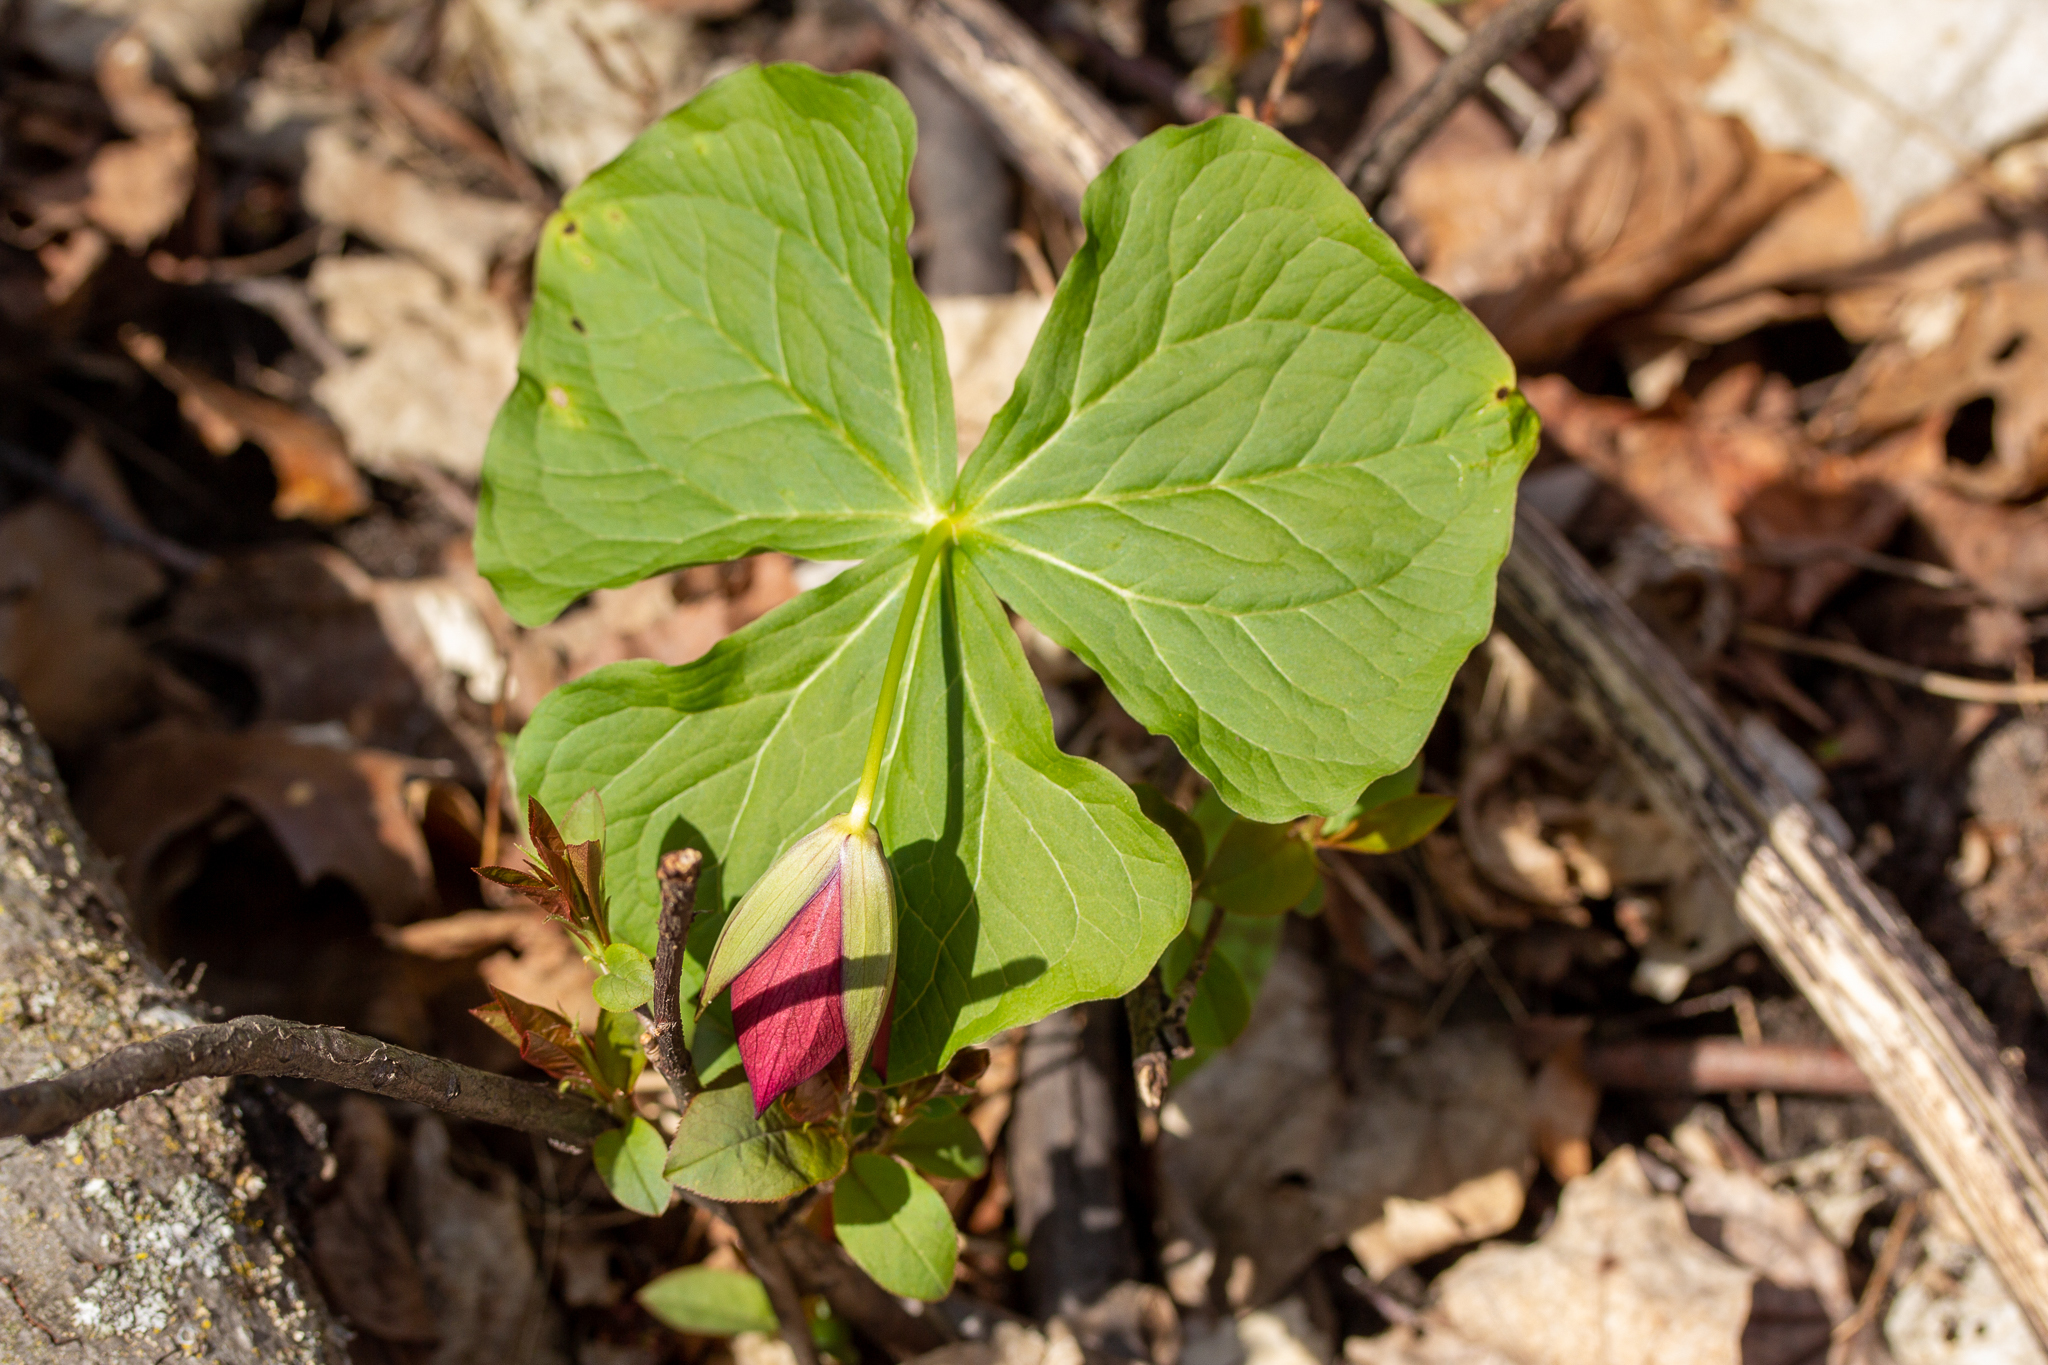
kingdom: Plantae
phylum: Tracheophyta
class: Liliopsida
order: Liliales
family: Melanthiaceae
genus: Trillium
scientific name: Trillium erectum
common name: Purple trillium
